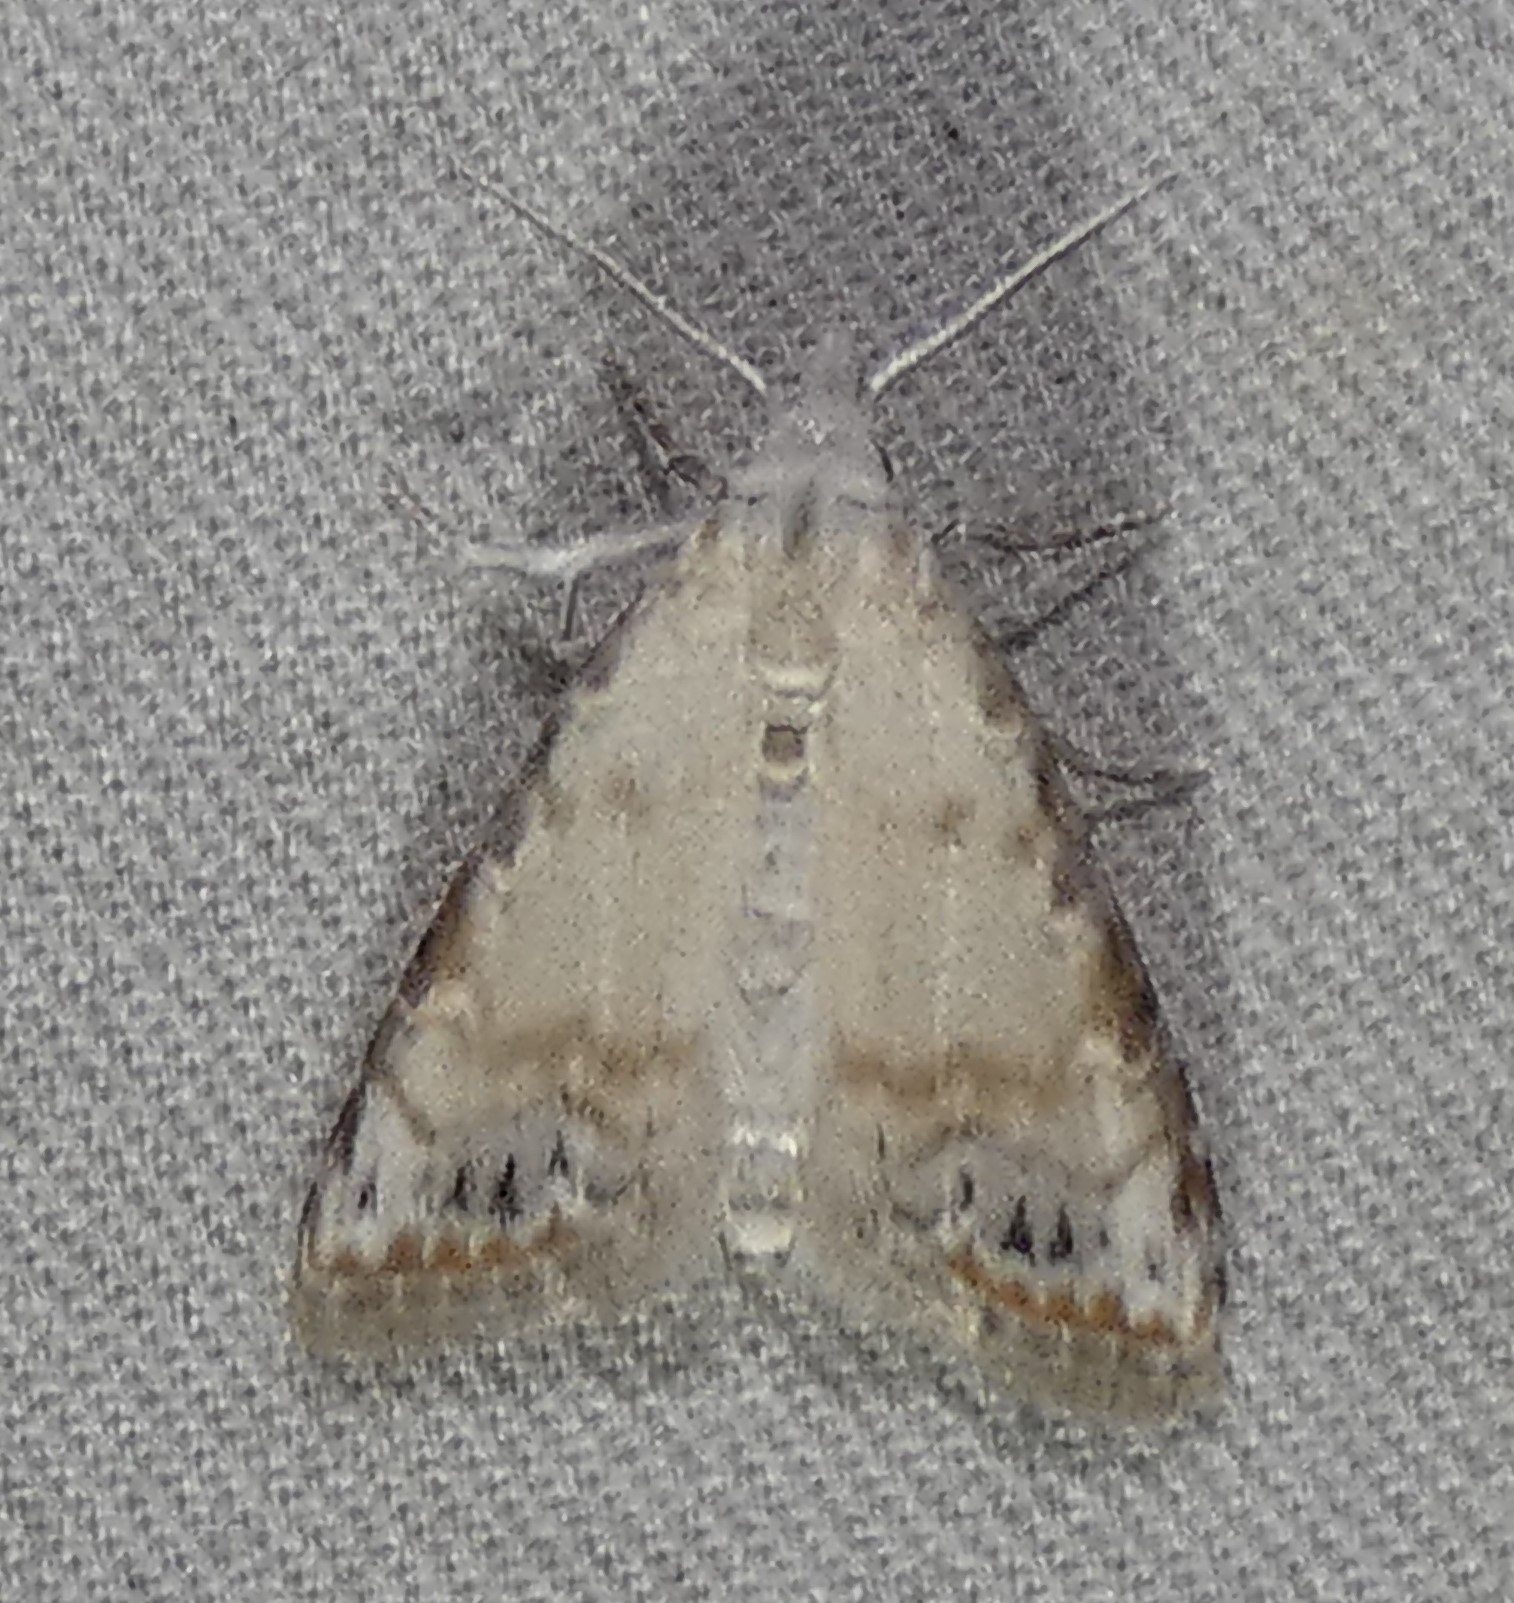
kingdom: Animalia
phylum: Arthropoda
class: Insecta
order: Lepidoptera
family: Nolidae
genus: Nola
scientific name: Nola cereella
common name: Sorghum webworm moth
